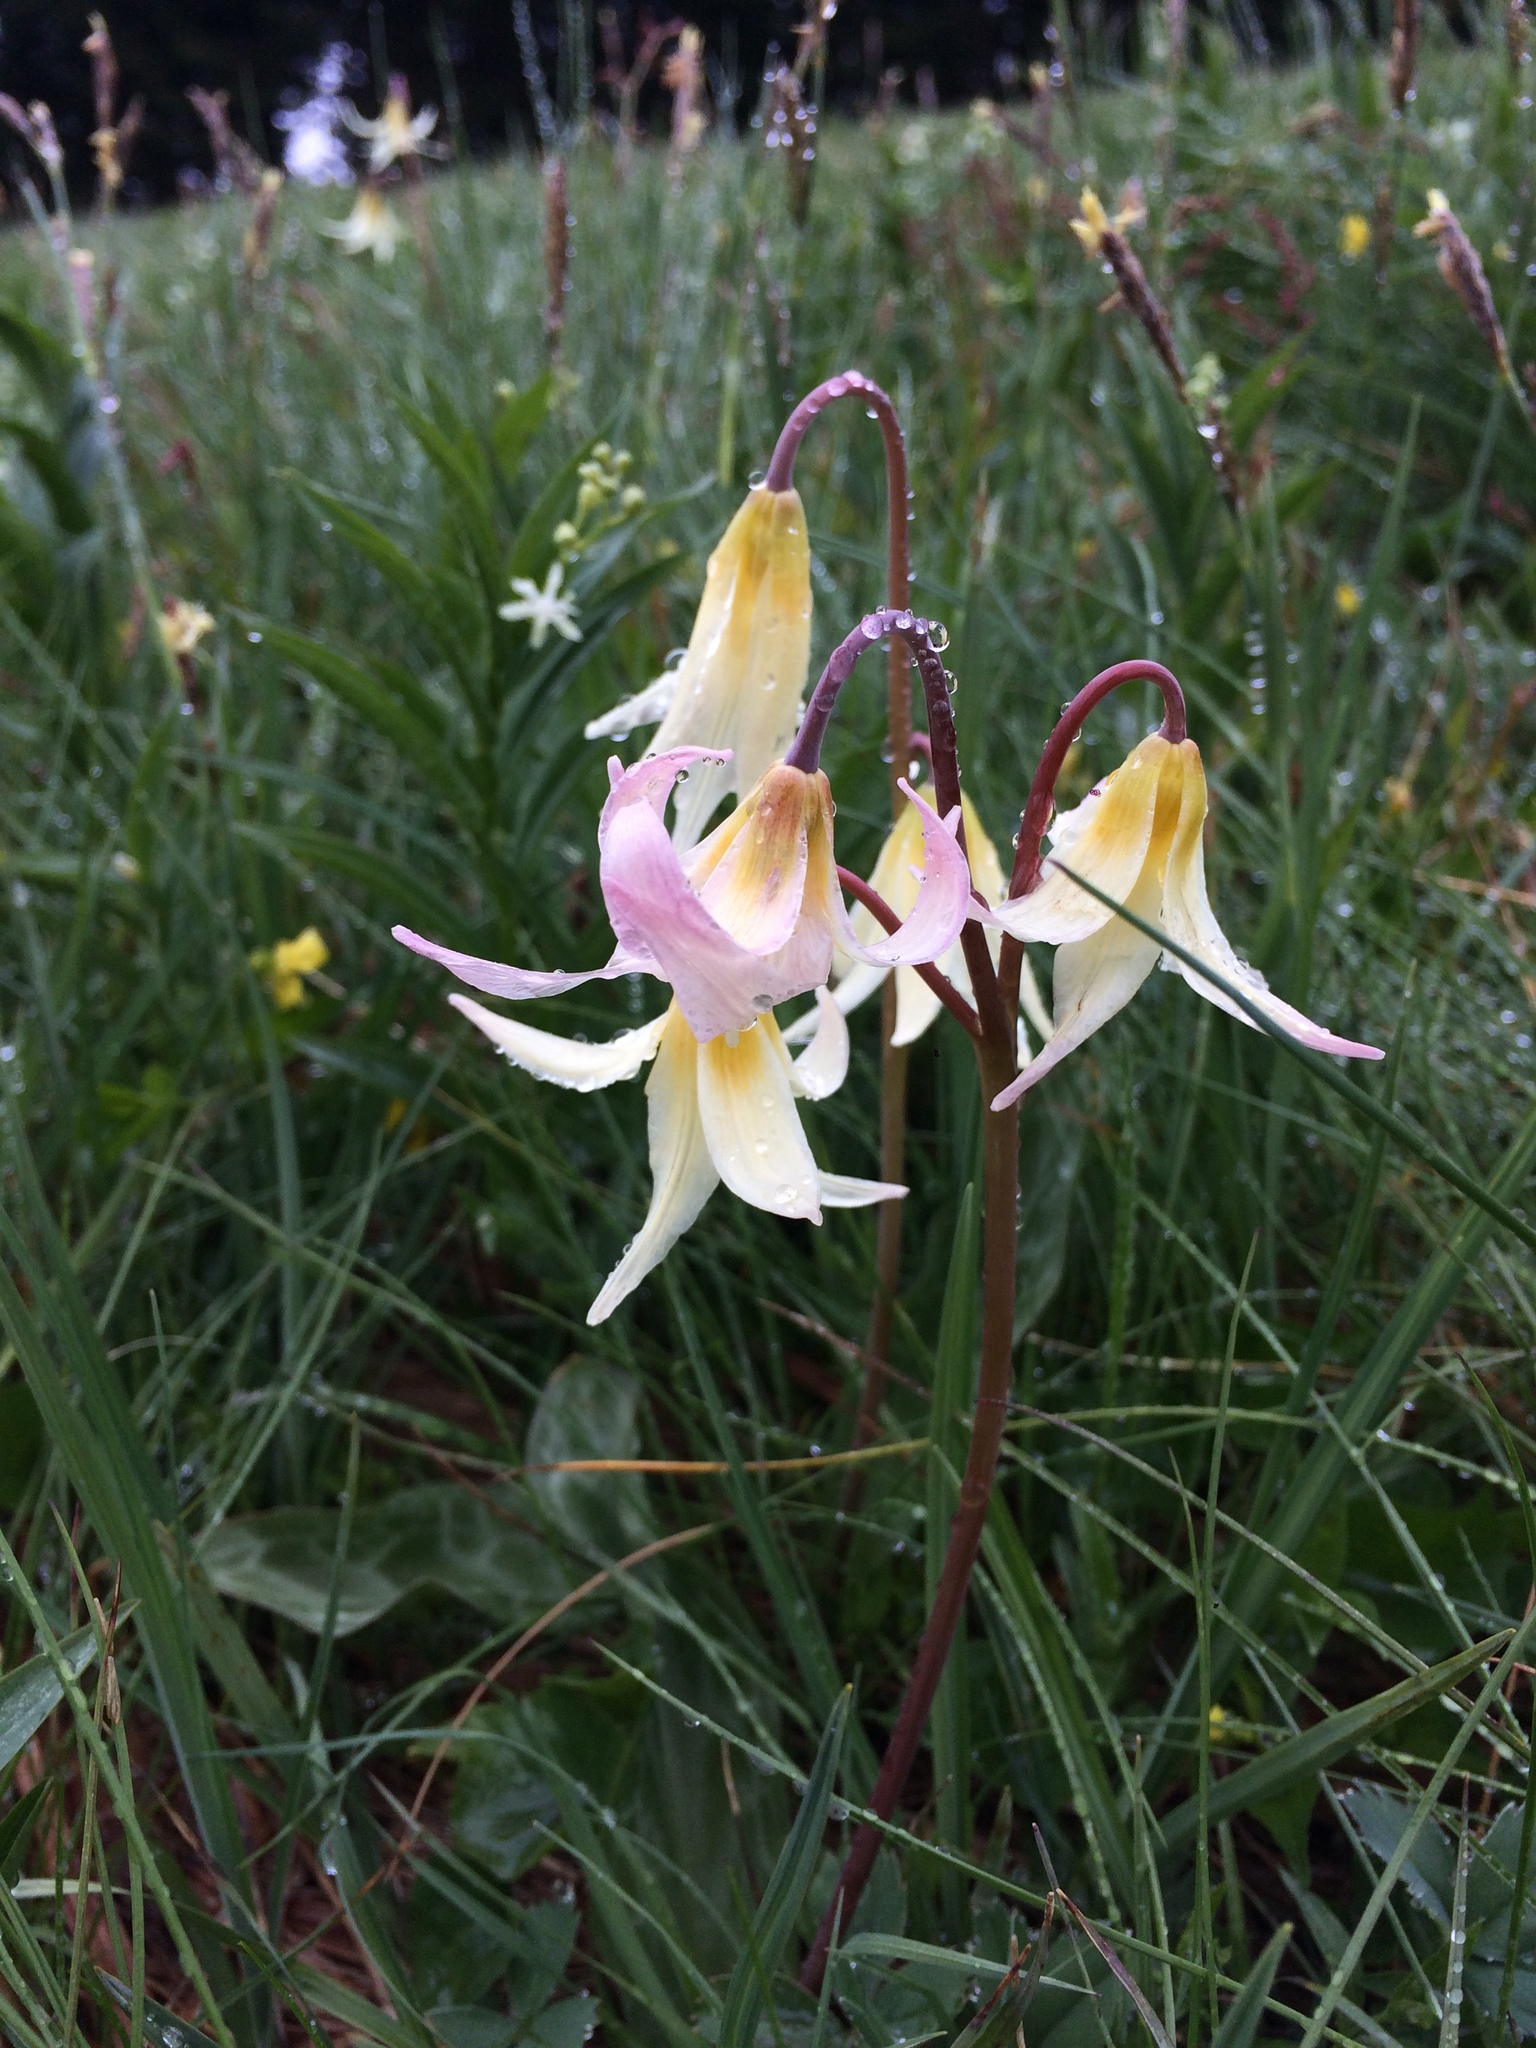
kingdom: Plantae
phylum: Tracheophyta
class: Liliopsida
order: Liliales
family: Liliaceae
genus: Erythronium
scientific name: Erythronium oregonum
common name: Giant adder's-tongue
